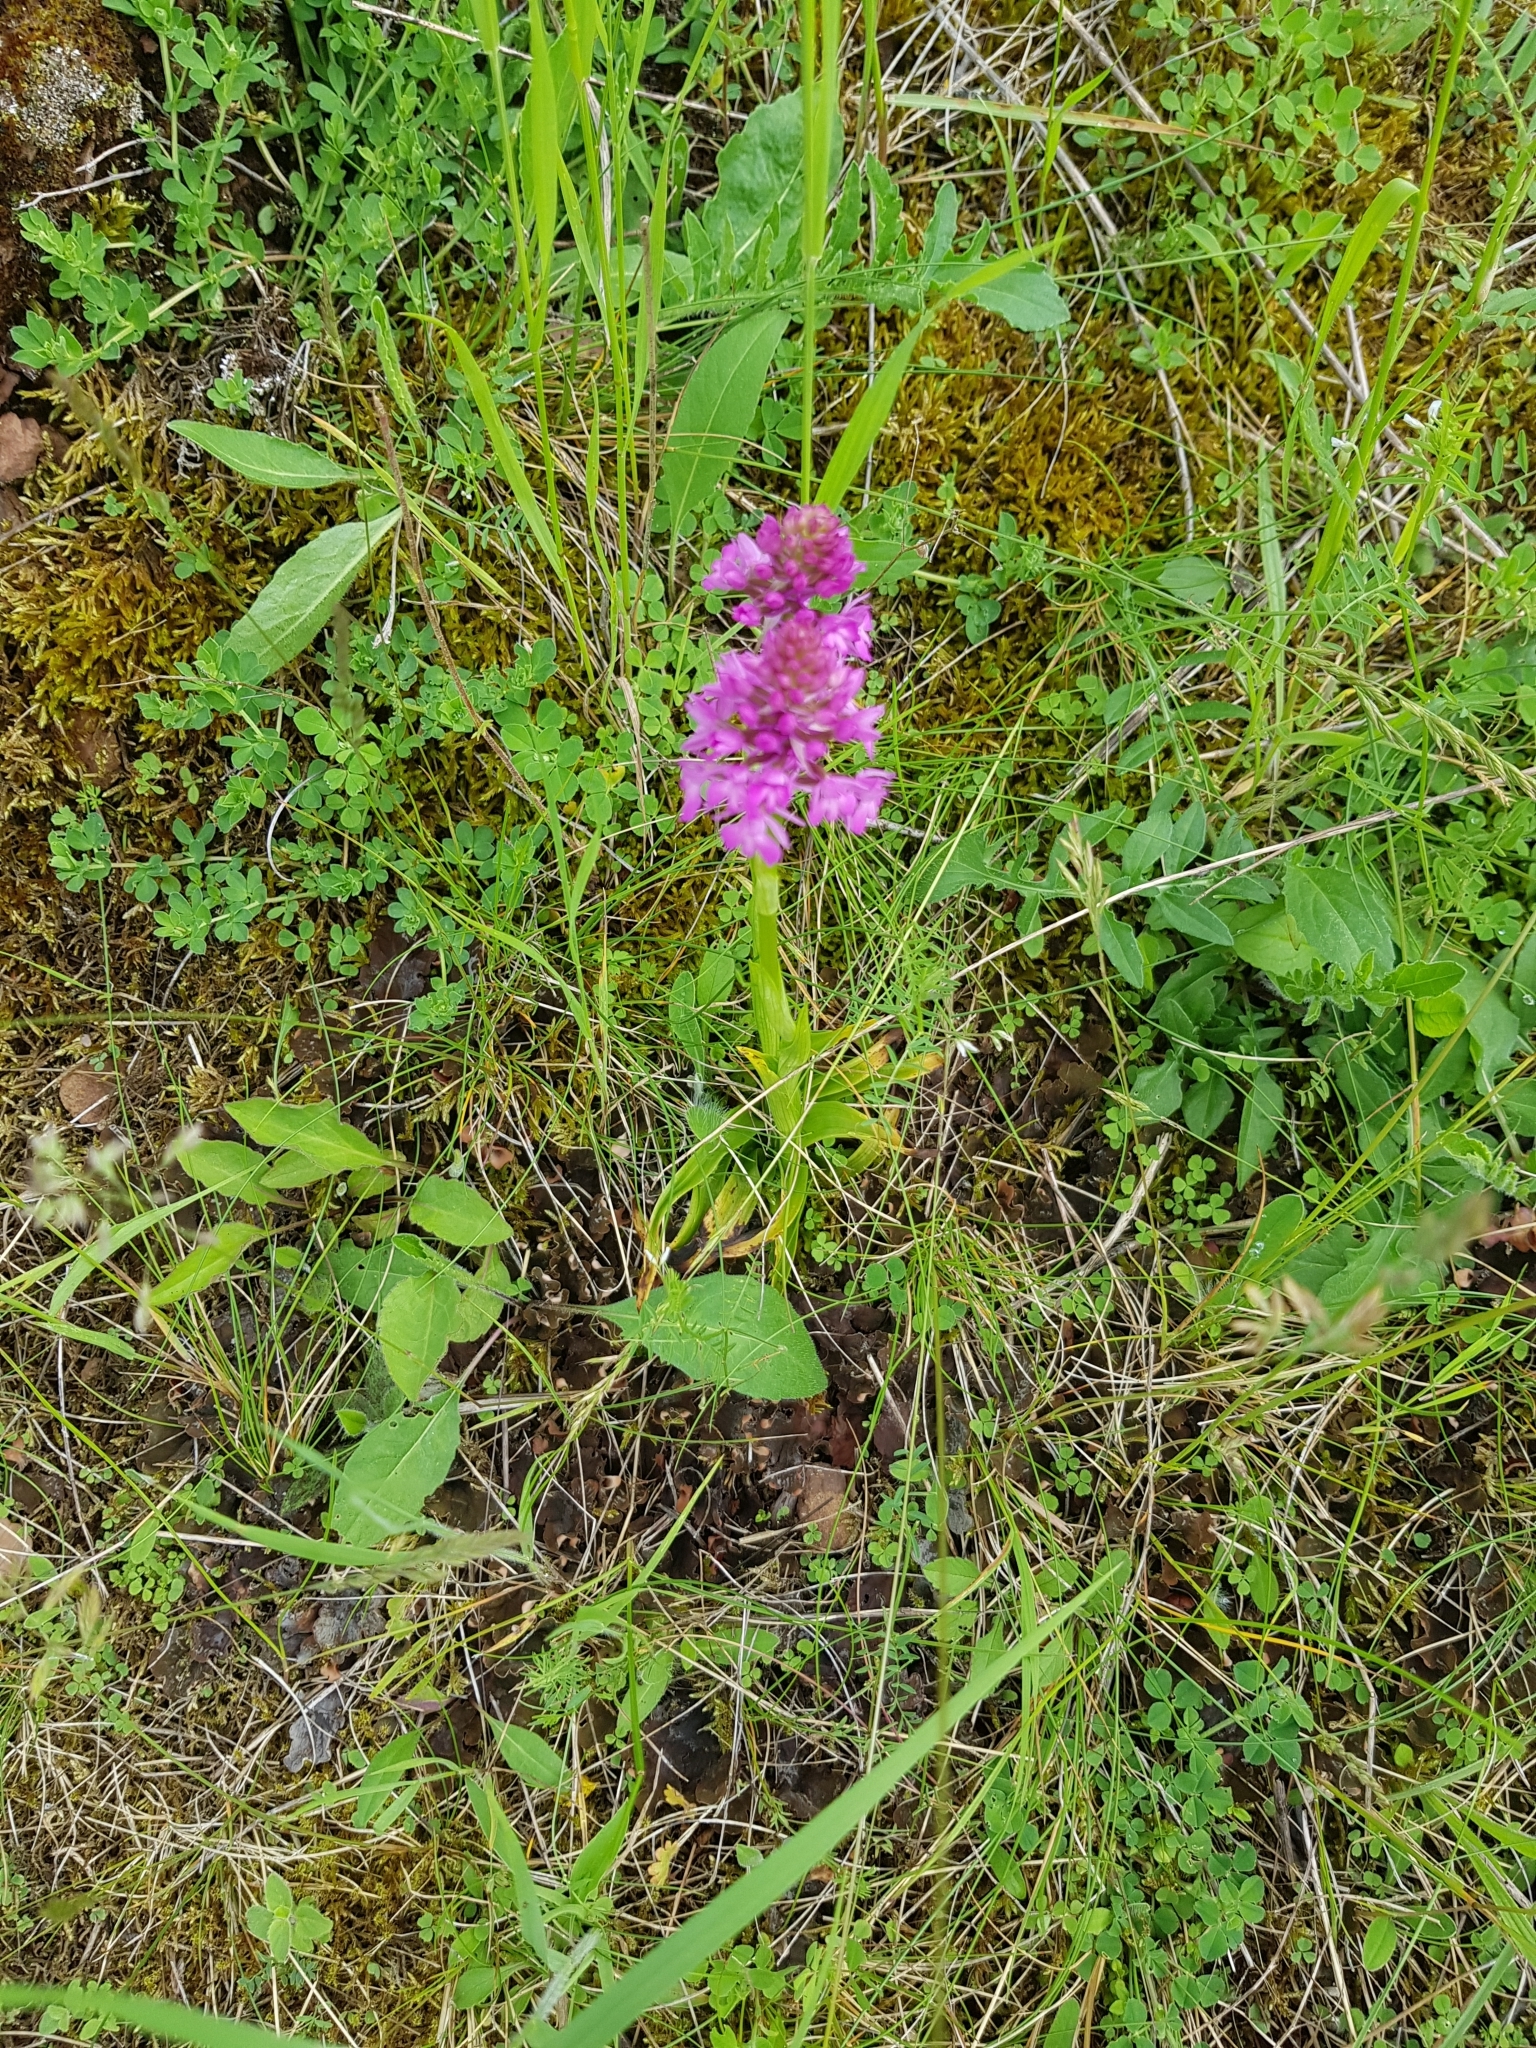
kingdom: Plantae
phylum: Tracheophyta
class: Liliopsida
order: Asparagales
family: Orchidaceae
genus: Anacamptis
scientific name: Anacamptis pyramidalis
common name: Pyramidal orchid
